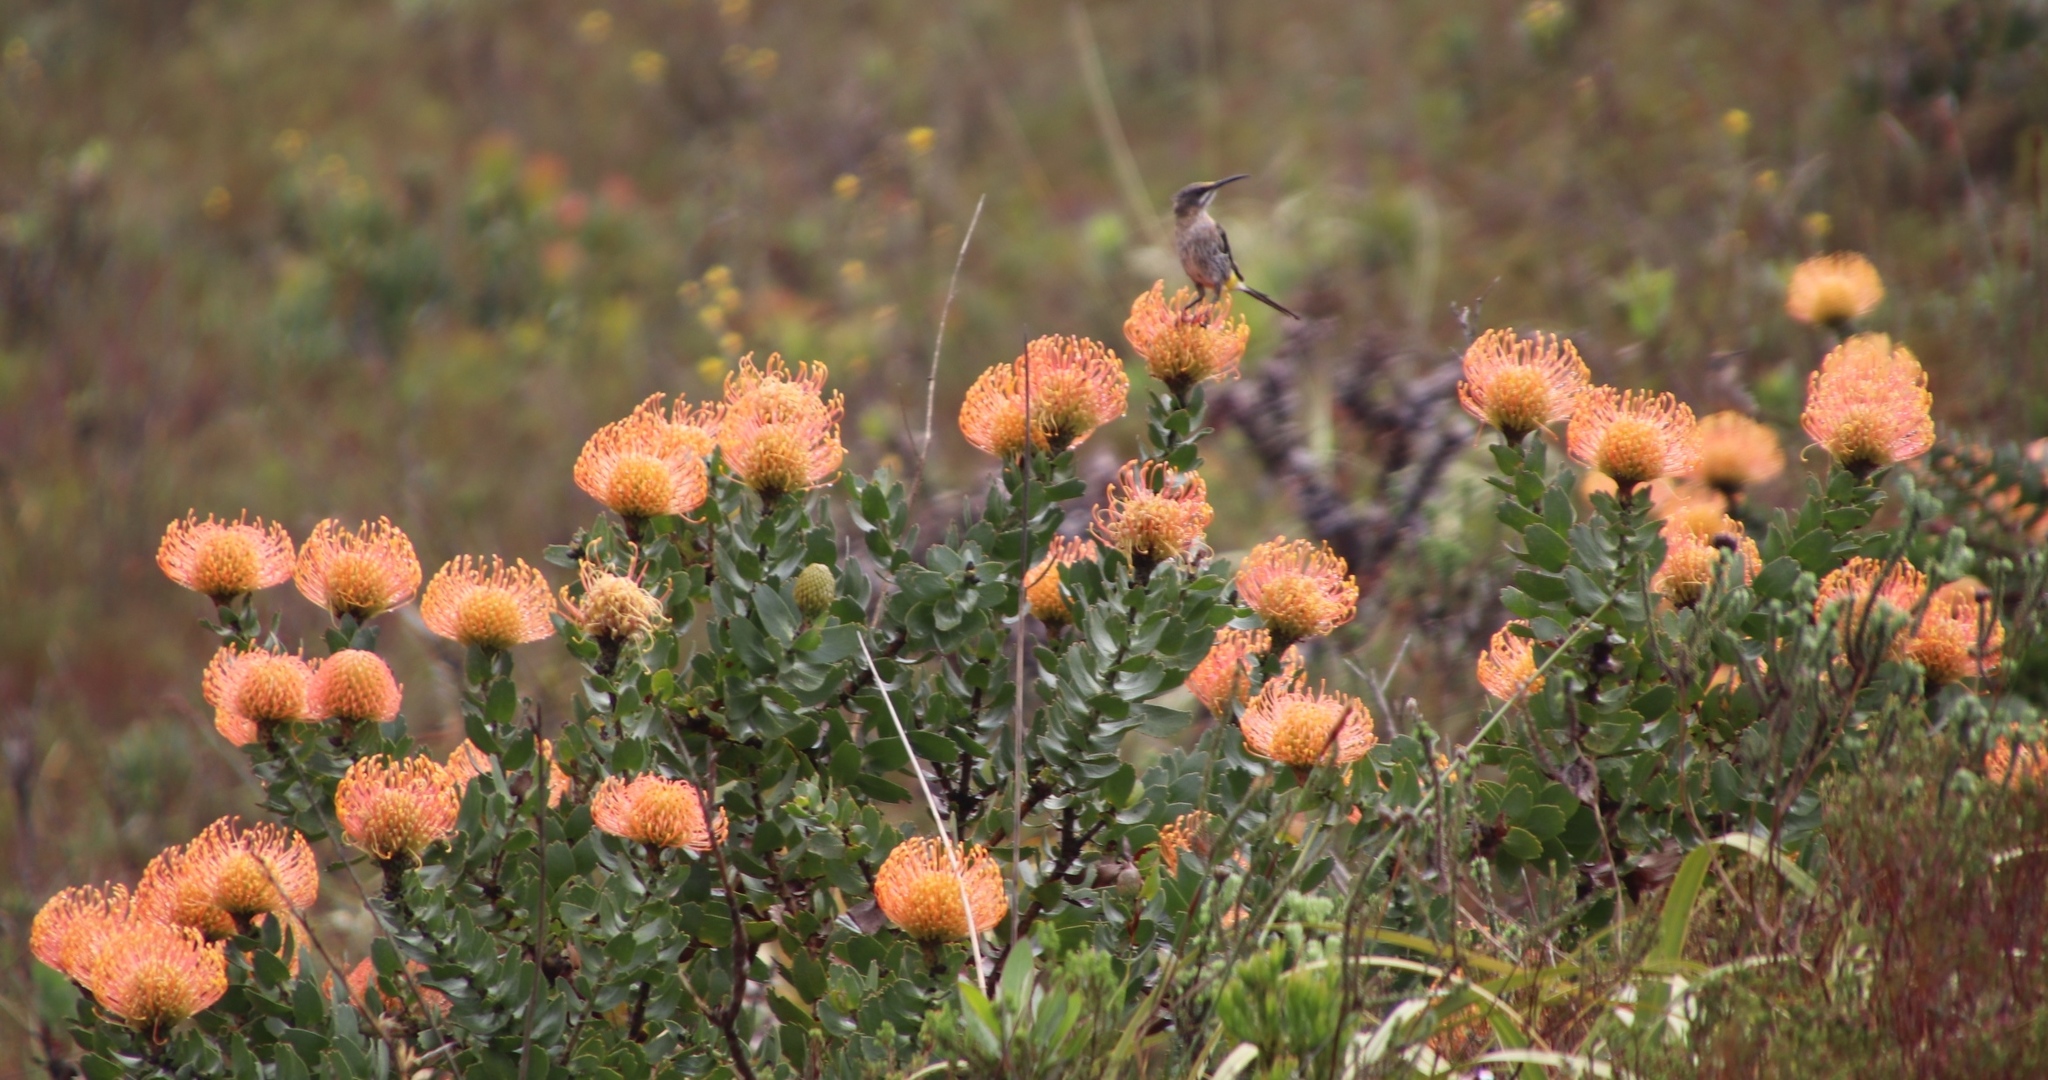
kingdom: Animalia
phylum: Chordata
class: Aves
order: Passeriformes
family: Promeropidae
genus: Promerops
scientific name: Promerops cafer
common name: Cape sugarbird
